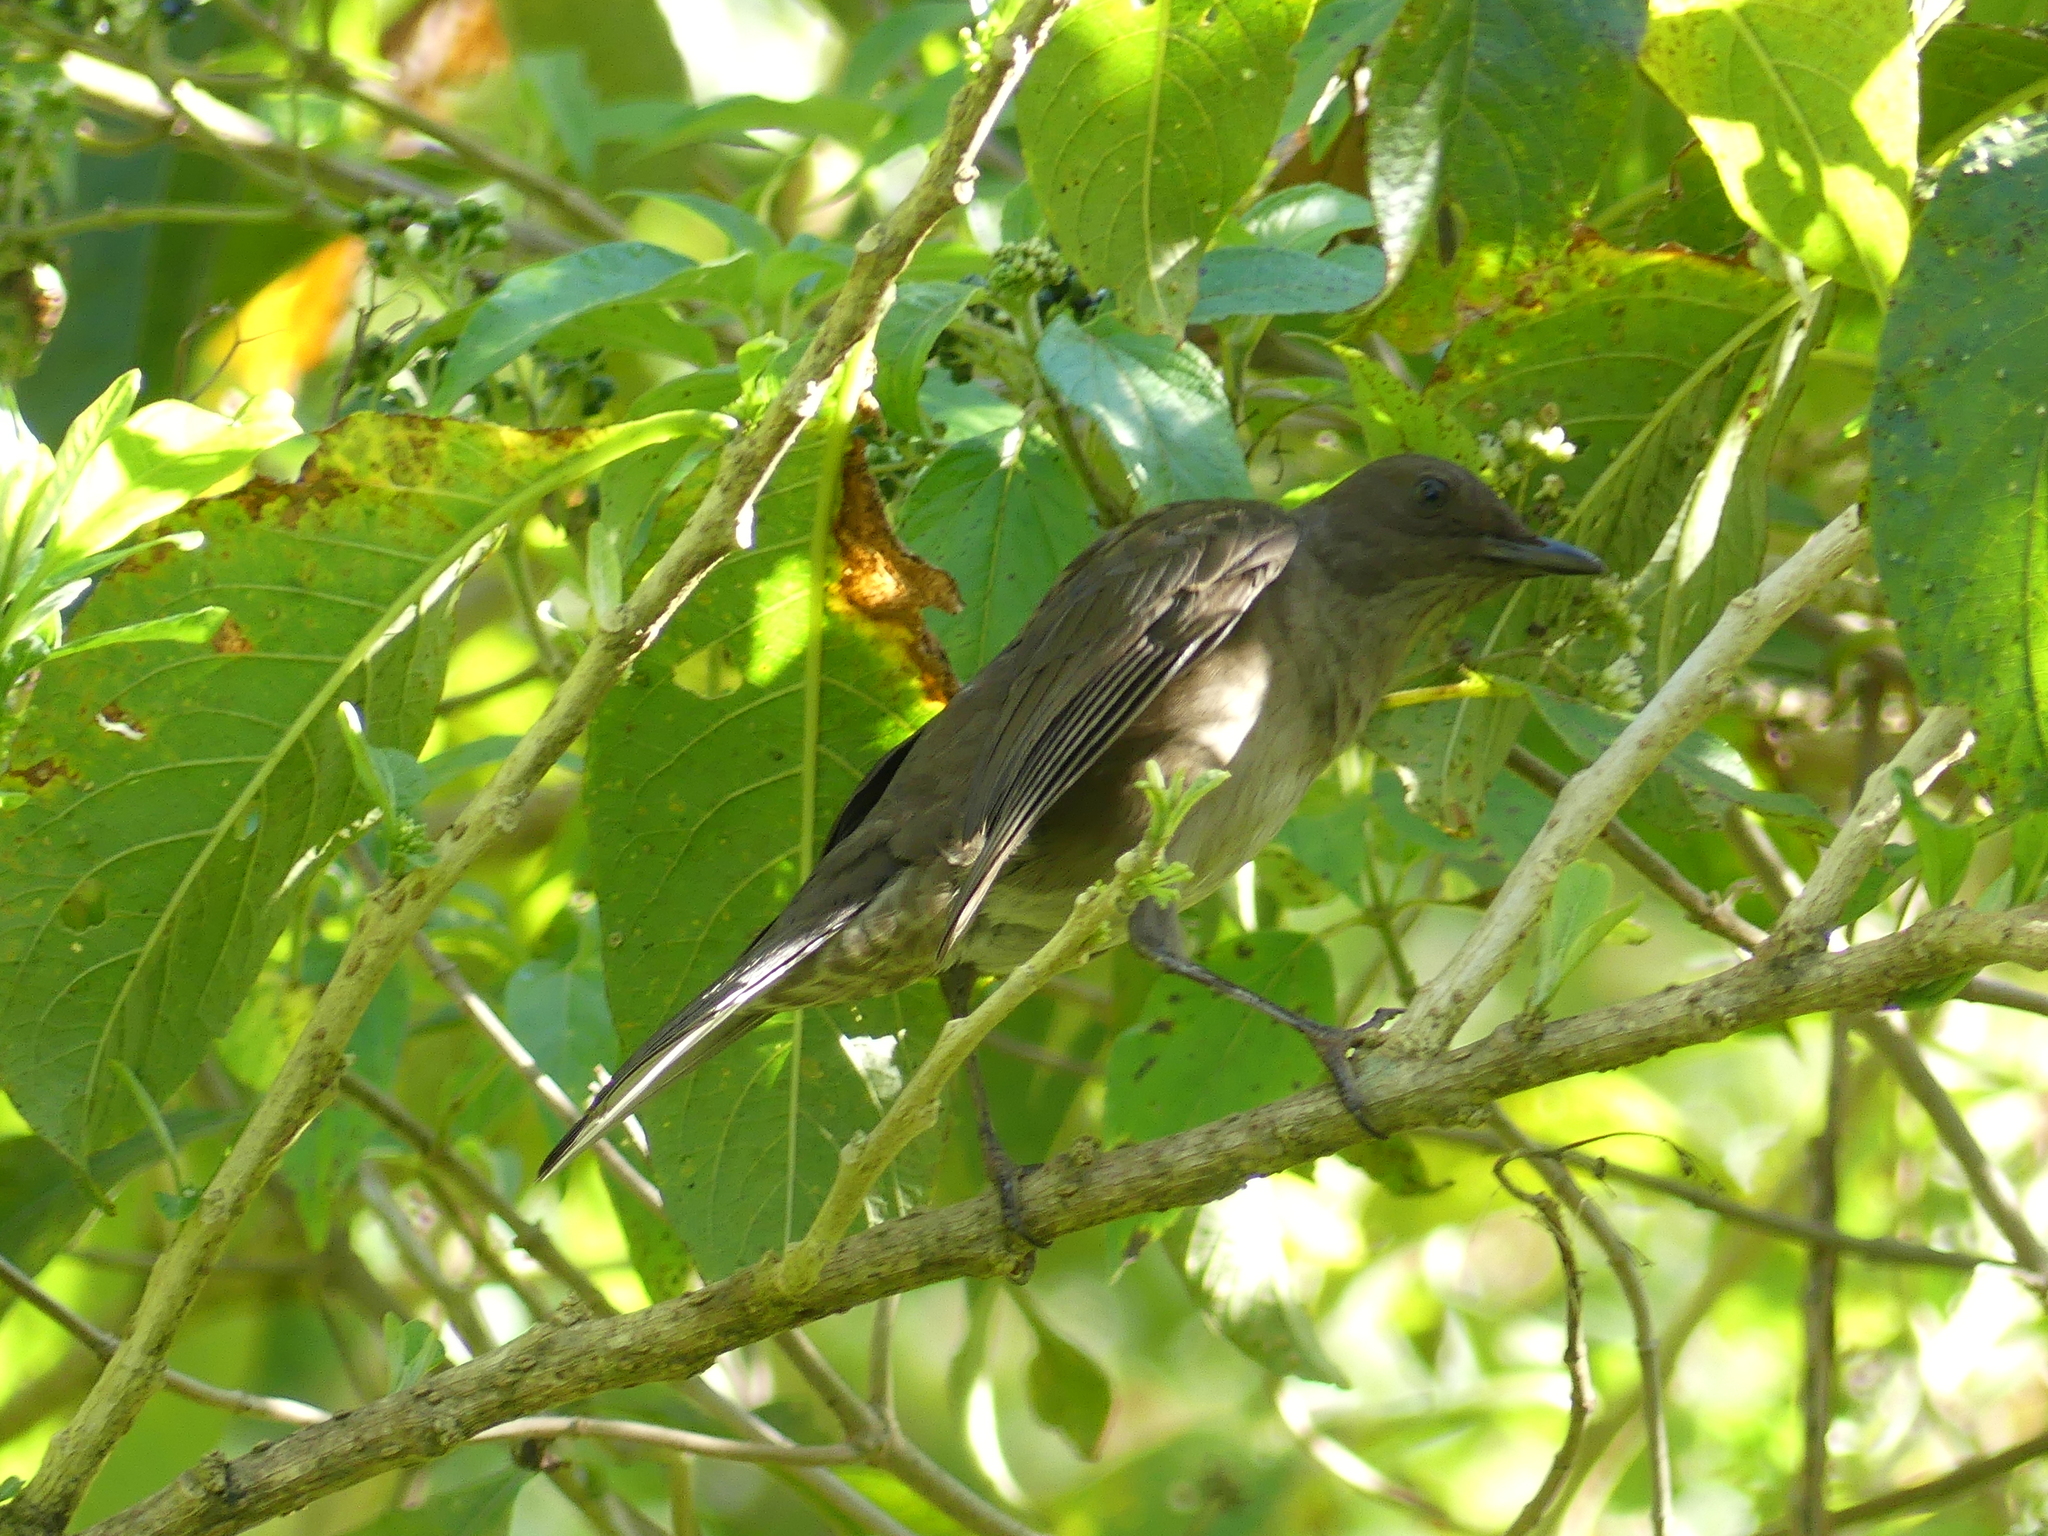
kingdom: Animalia
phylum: Chordata
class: Aves
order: Passeriformes
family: Turdidae
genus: Turdus
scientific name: Turdus plebejus
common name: Mountain thrush
